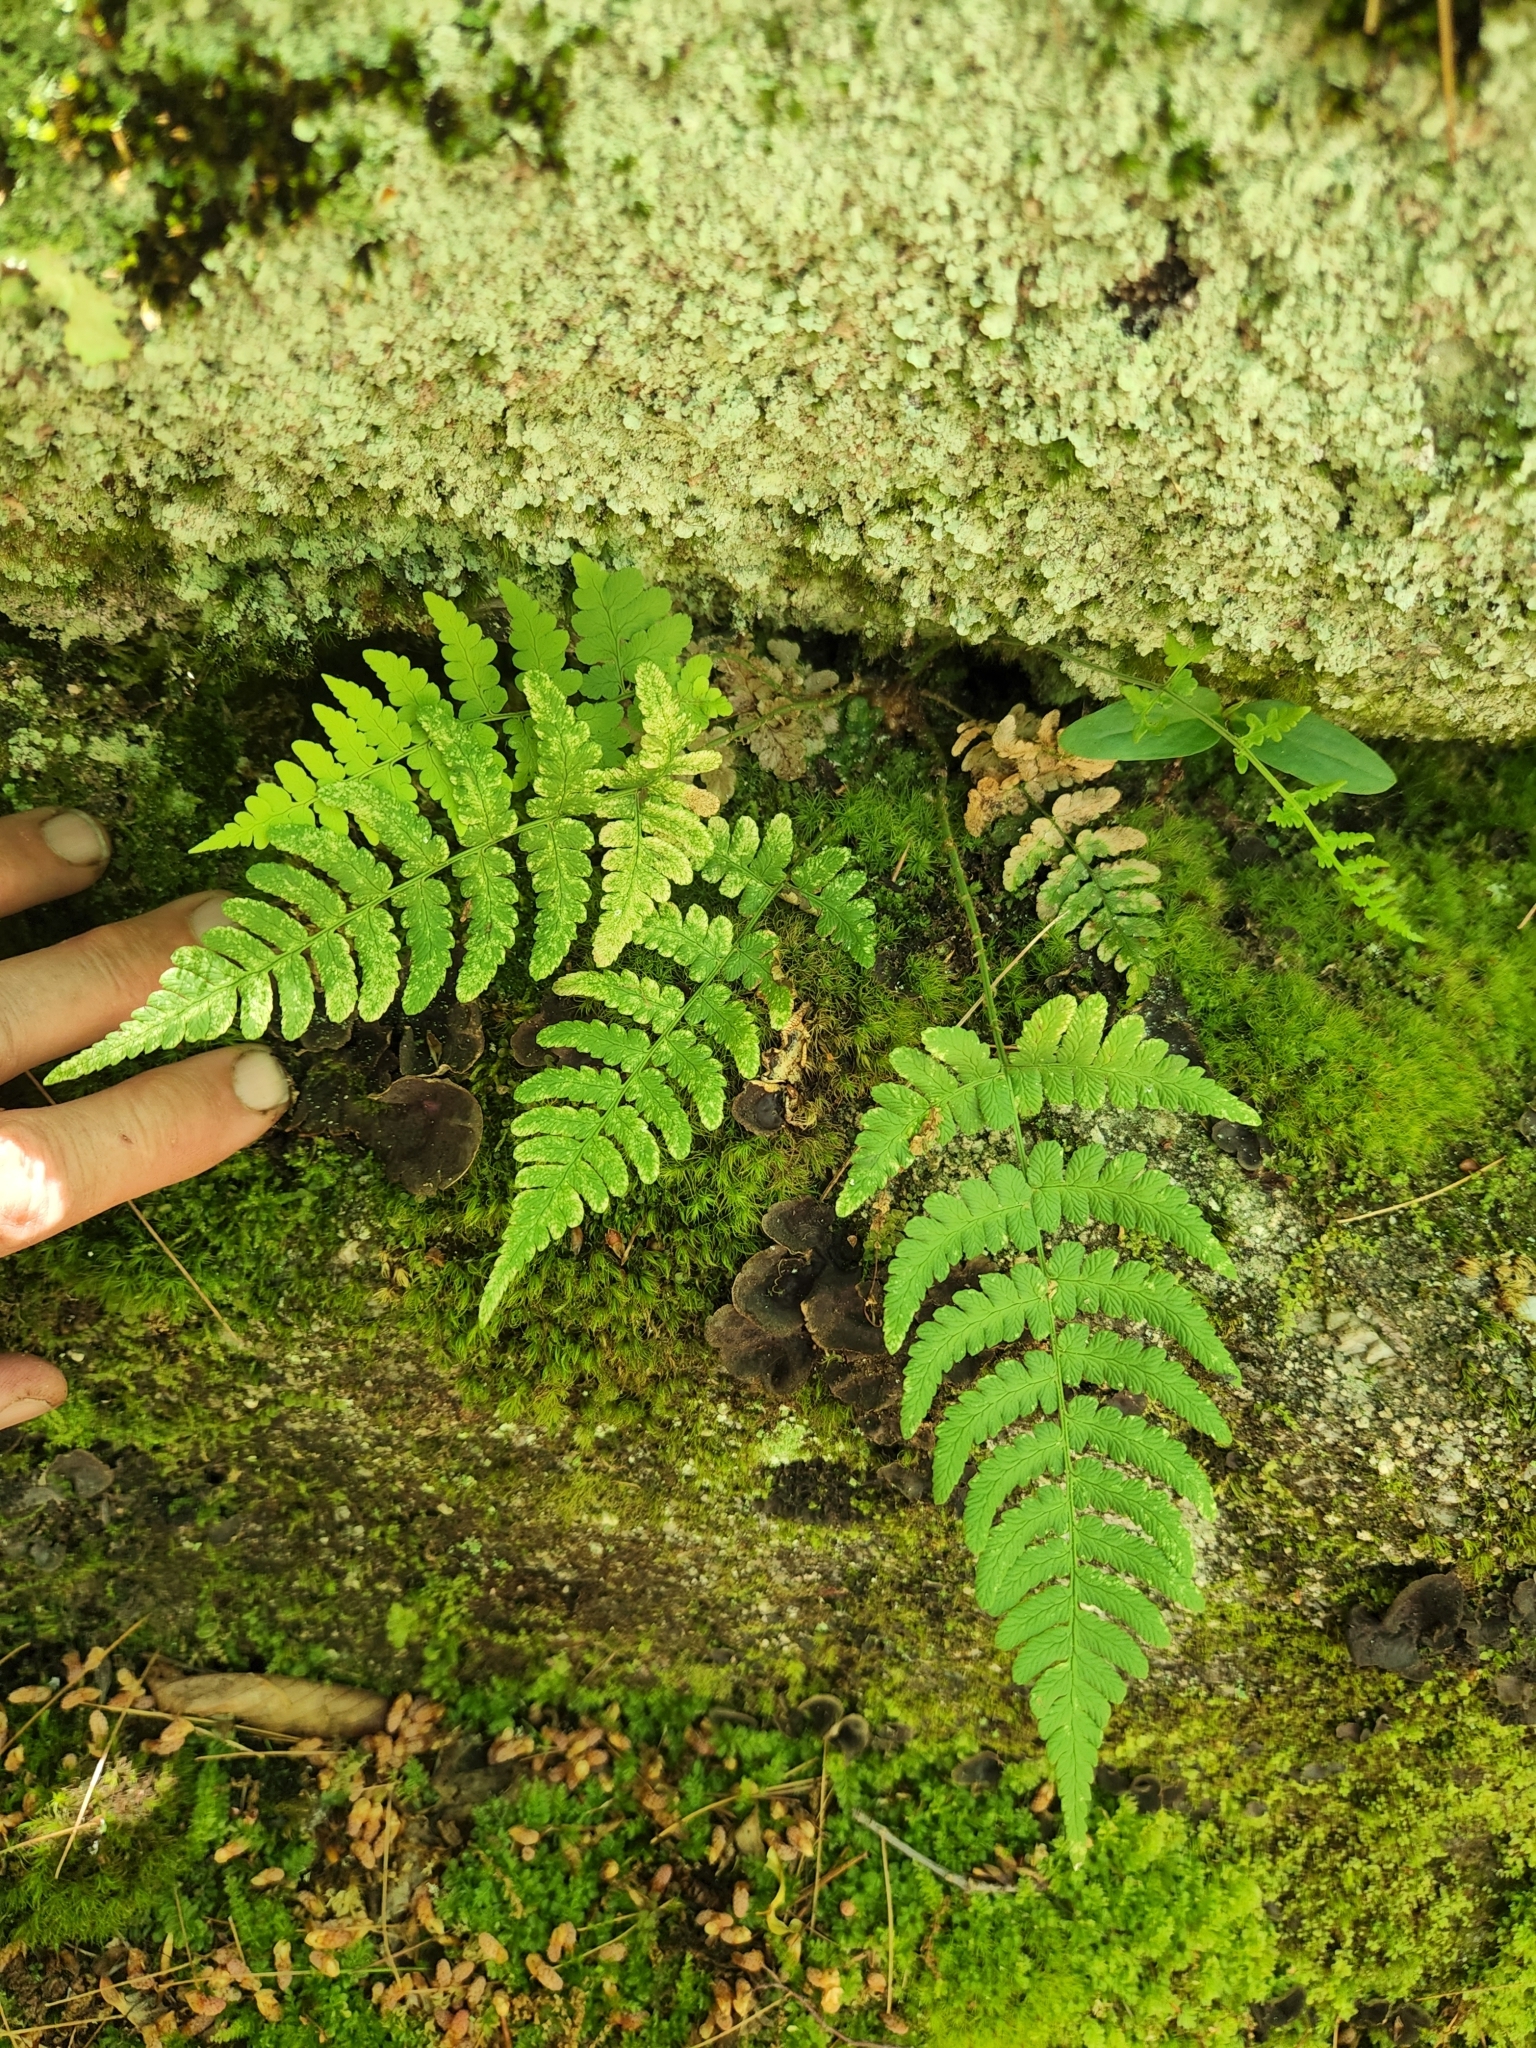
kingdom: Plantae
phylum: Tracheophyta
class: Polypodiopsida
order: Polypodiales
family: Dryopteridaceae
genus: Dryopteris
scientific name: Dryopteris marginalis
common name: Marginal wood fern
